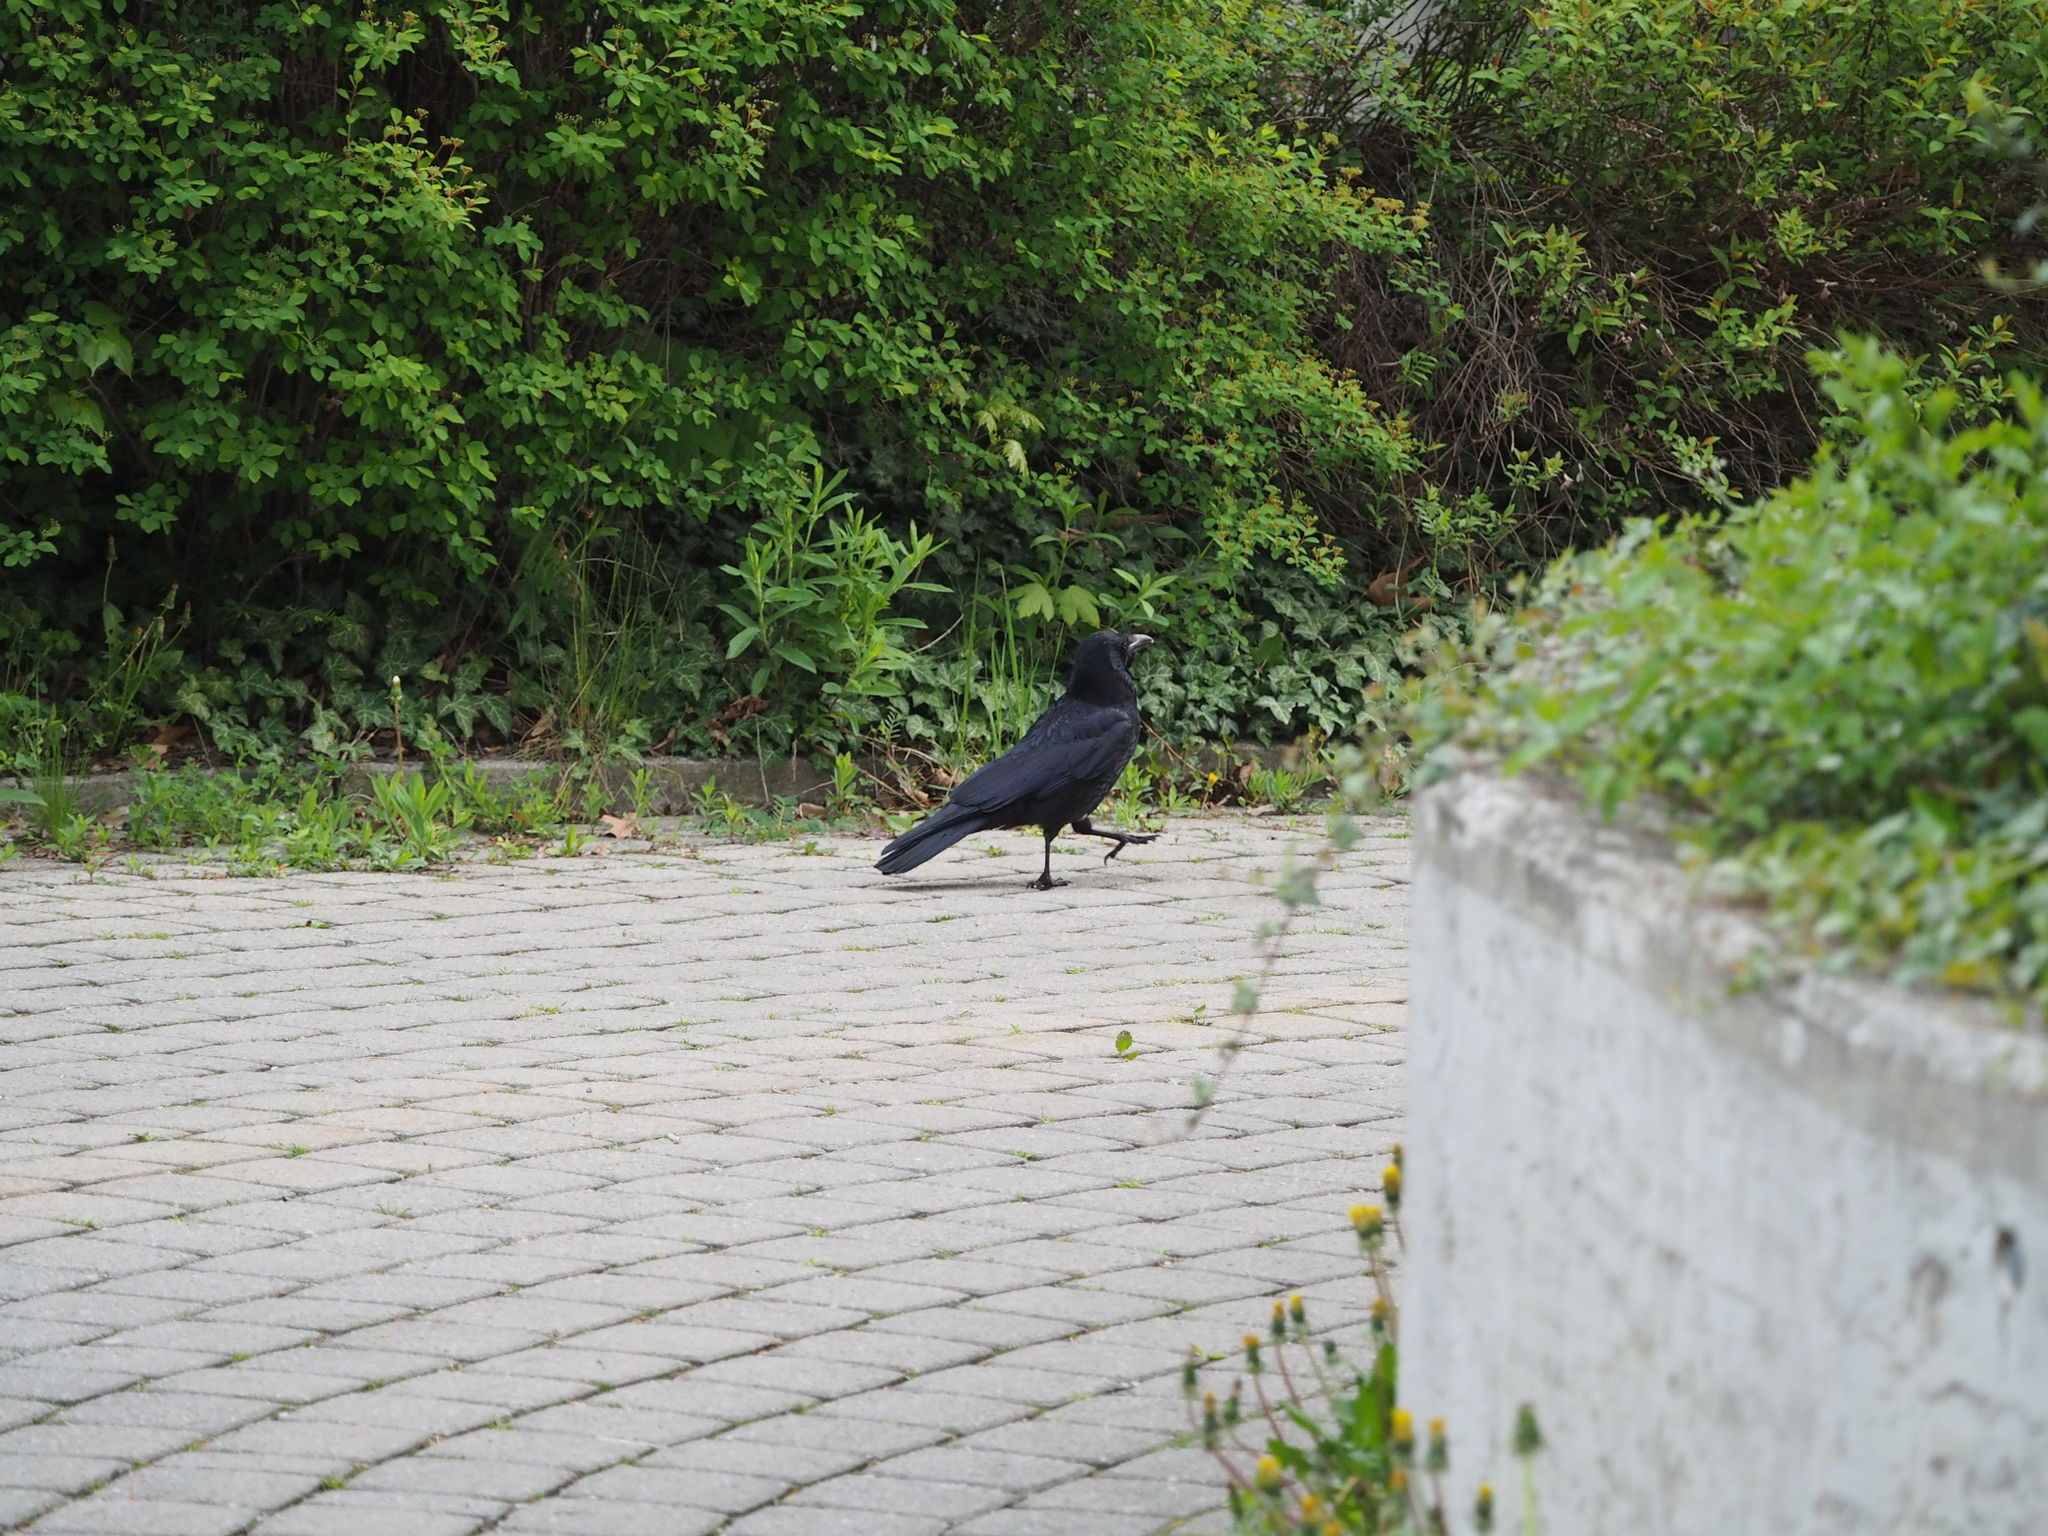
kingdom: Animalia
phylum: Chordata
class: Aves
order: Passeriformes
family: Corvidae
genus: Corvus
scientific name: Corvus corone
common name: Carrion crow
